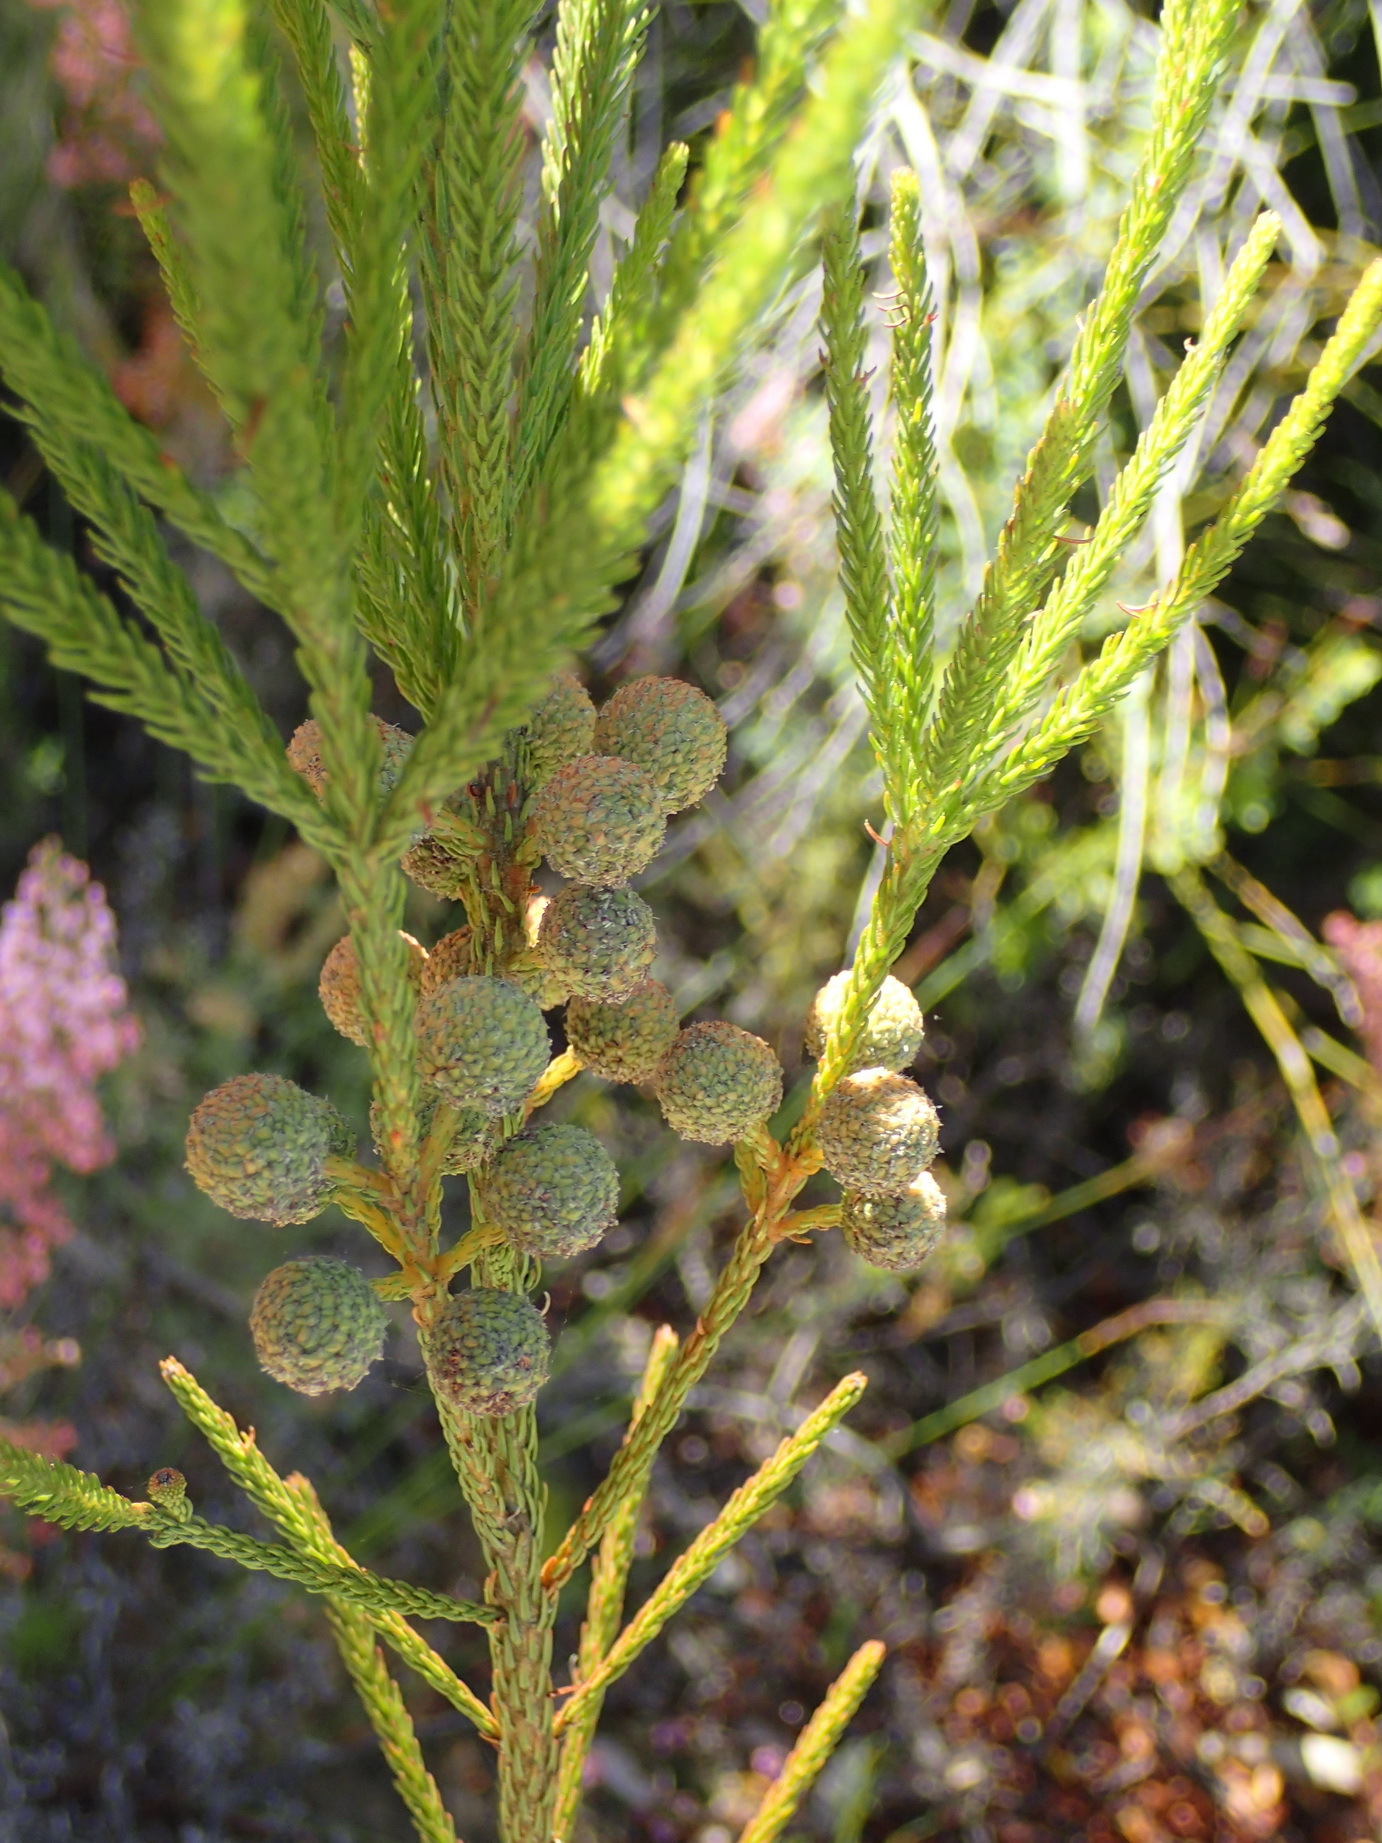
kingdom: Plantae
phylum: Tracheophyta
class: Magnoliopsida
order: Bruniales
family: Bruniaceae
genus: Berzelia
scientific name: Berzelia intermedia
